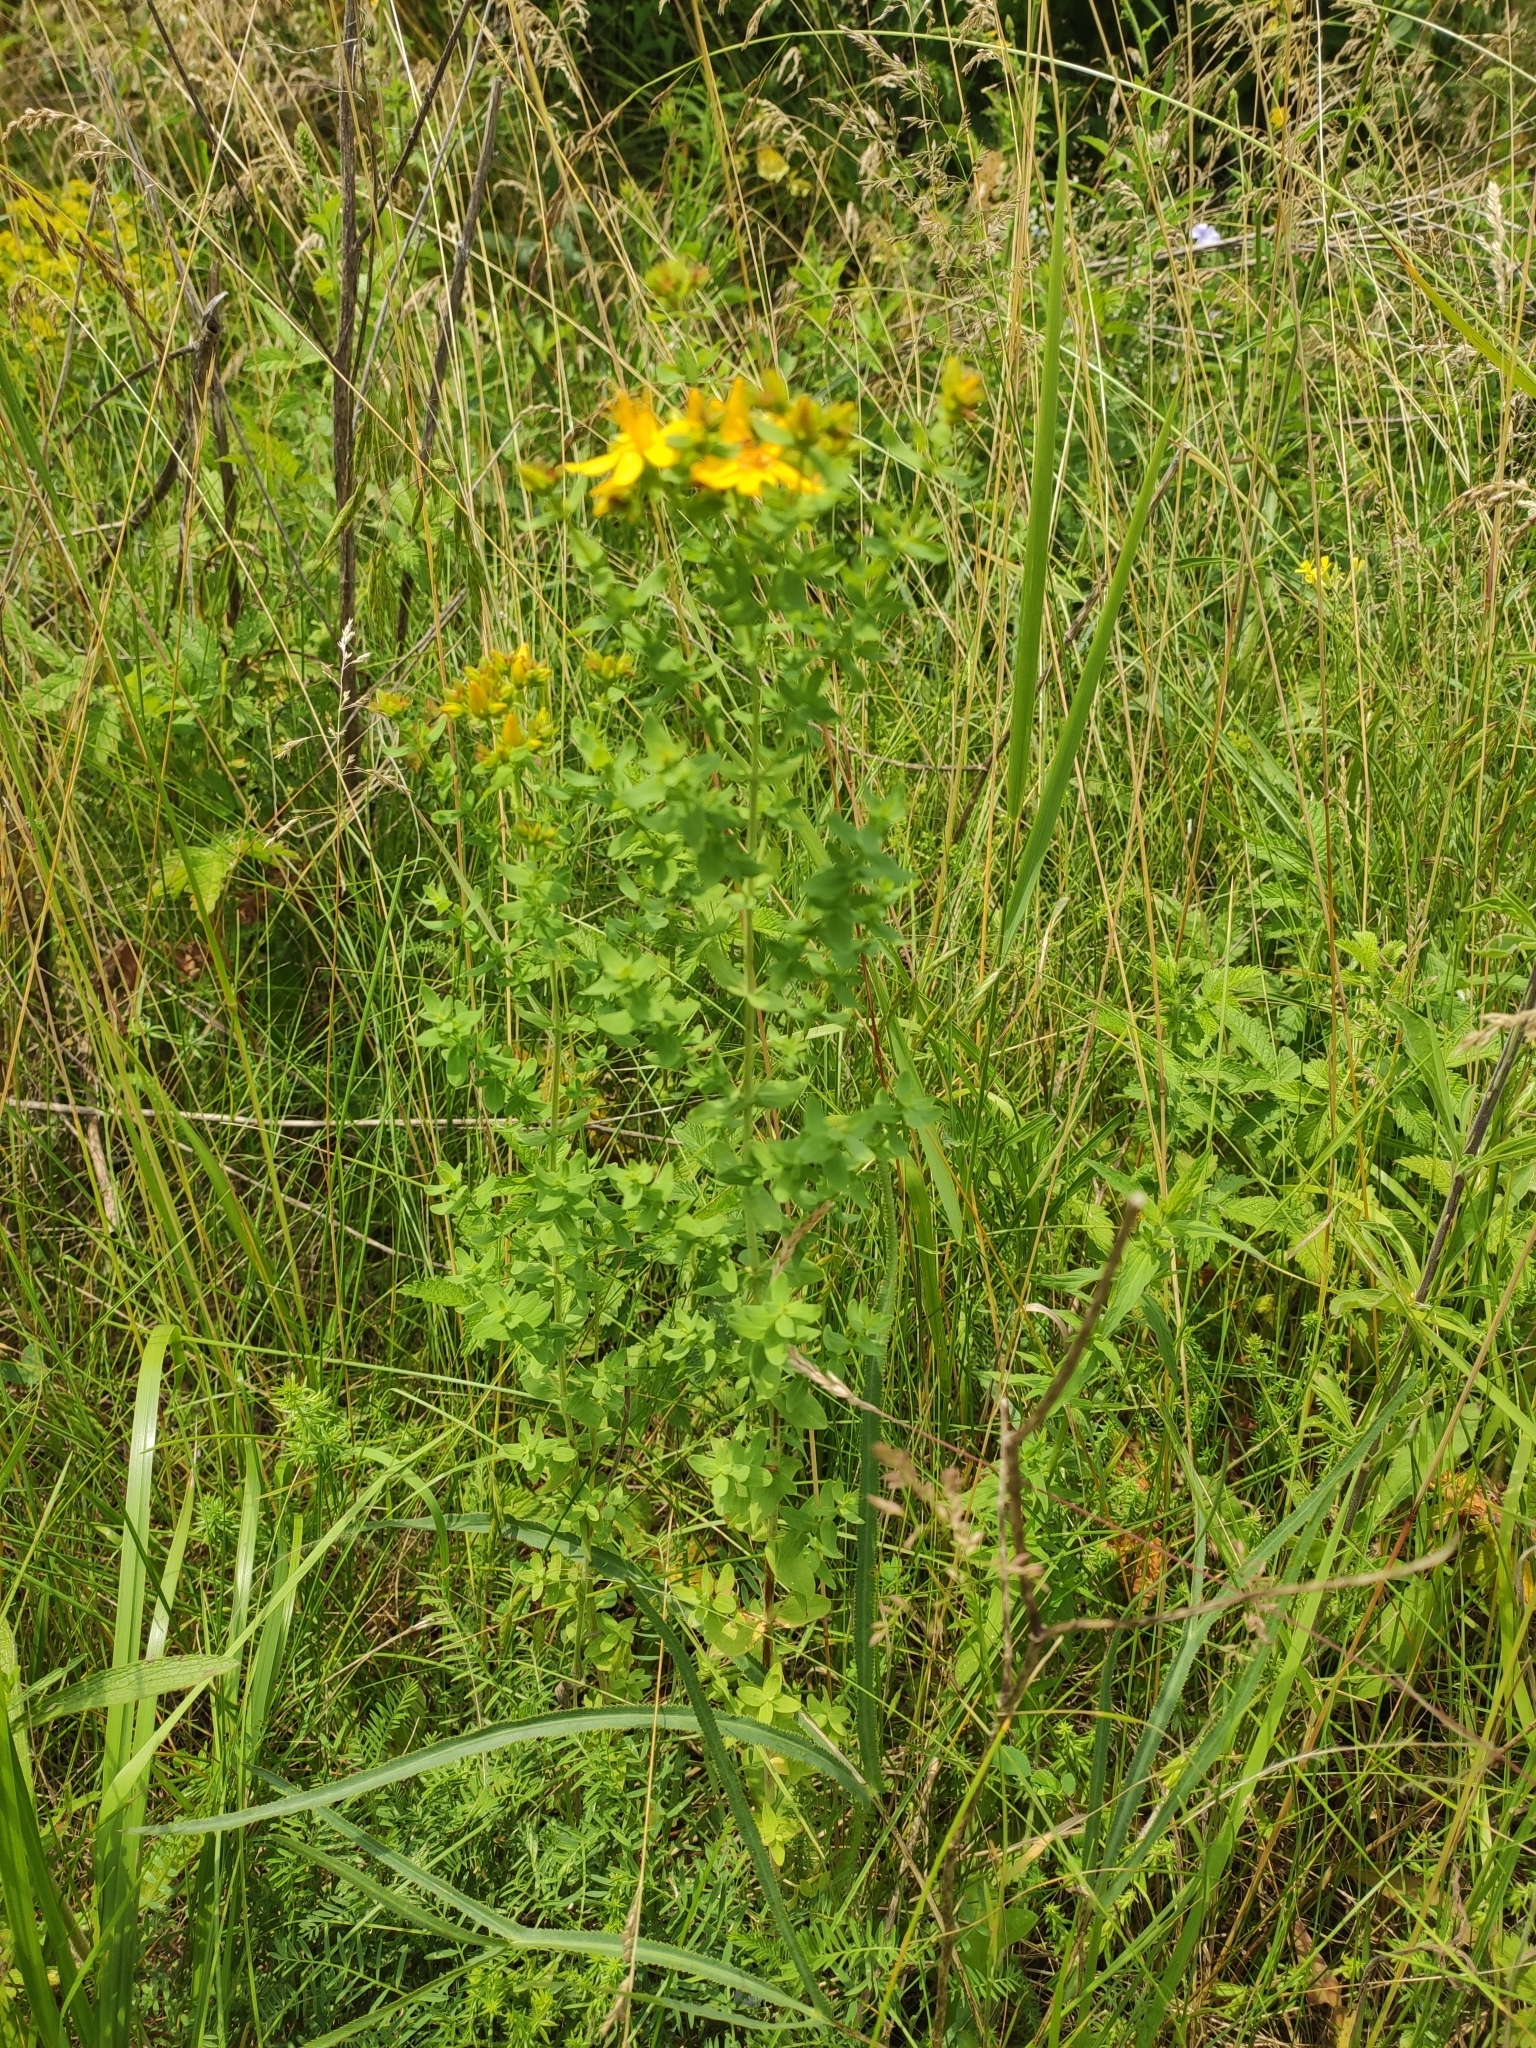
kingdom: Plantae
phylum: Tracheophyta
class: Magnoliopsida
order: Malpighiales
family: Hypericaceae
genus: Hypericum
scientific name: Hypericum perforatum
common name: Common st. johnswort
